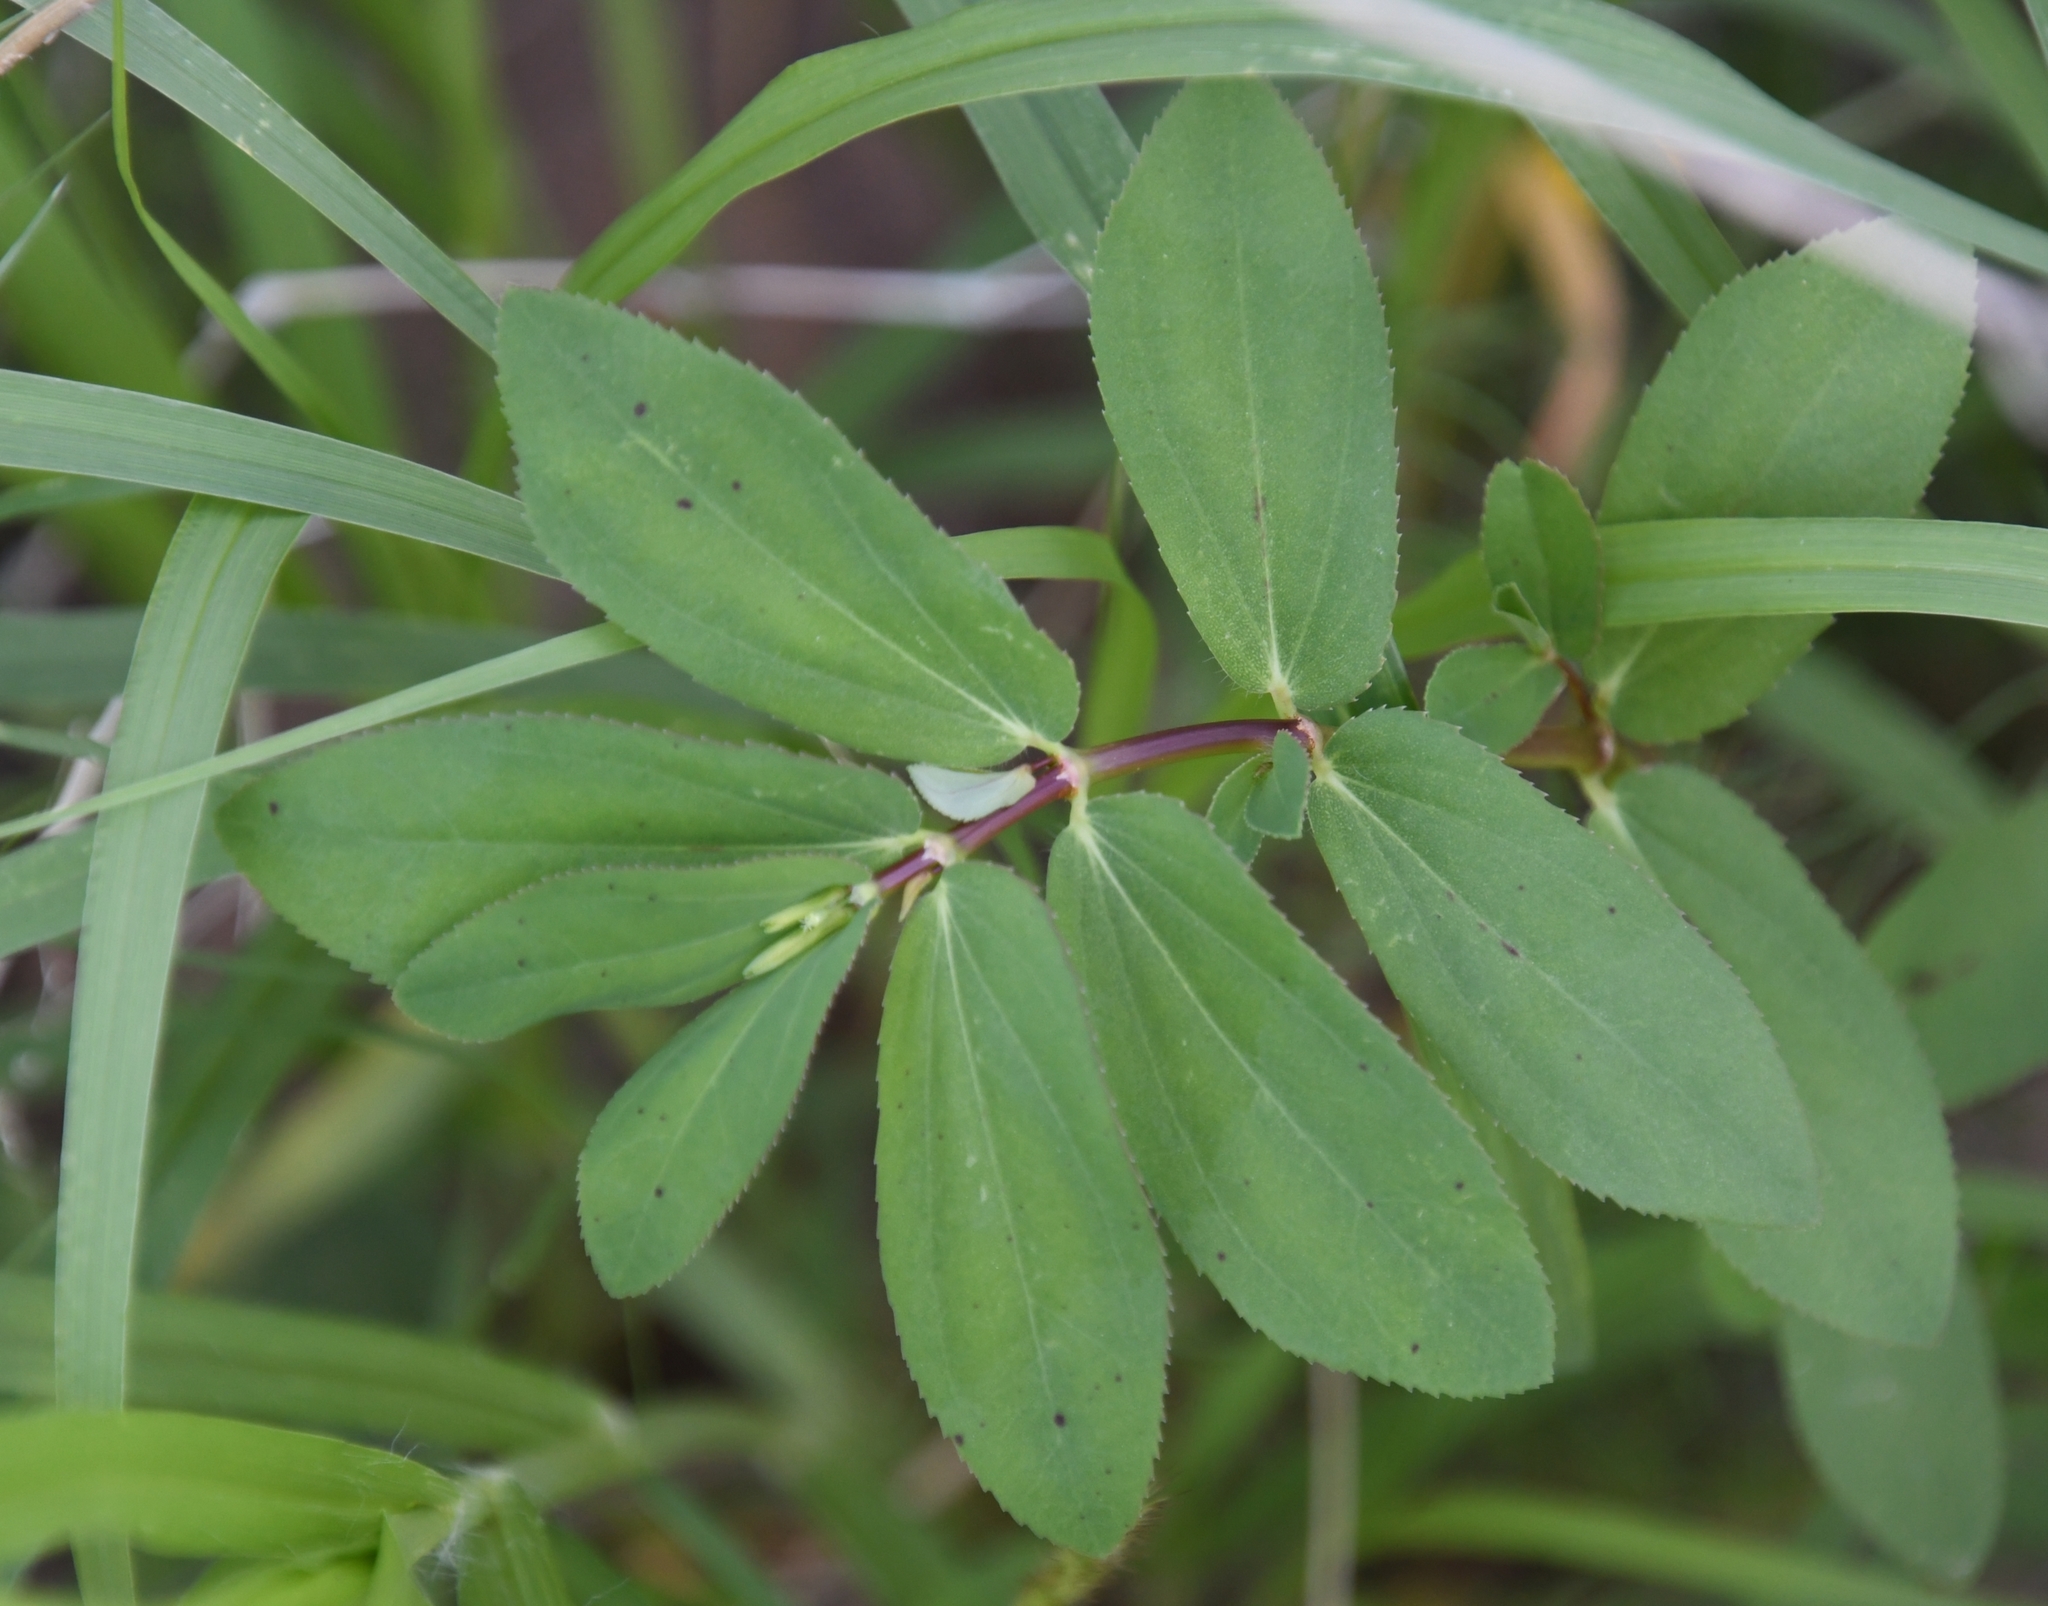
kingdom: Plantae
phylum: Tracheophyta
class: Magnoliopsida
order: Malpighiales
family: Euphorbiaceae
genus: Euphorbia
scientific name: Euphorbia hyssopifolia
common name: Hyssopleaf sandmat
